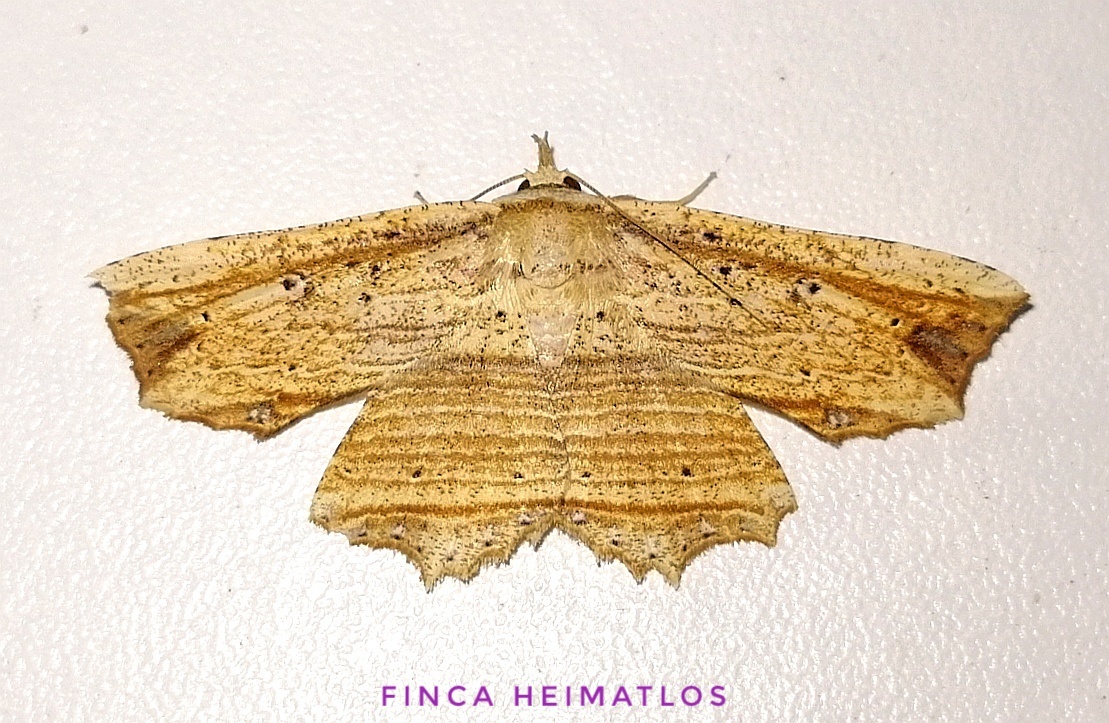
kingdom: Animalia
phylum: Arthropoda
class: Insecta
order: Lepidoptera
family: Erebidae
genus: Oroscopa
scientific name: Oroscopa variegata
